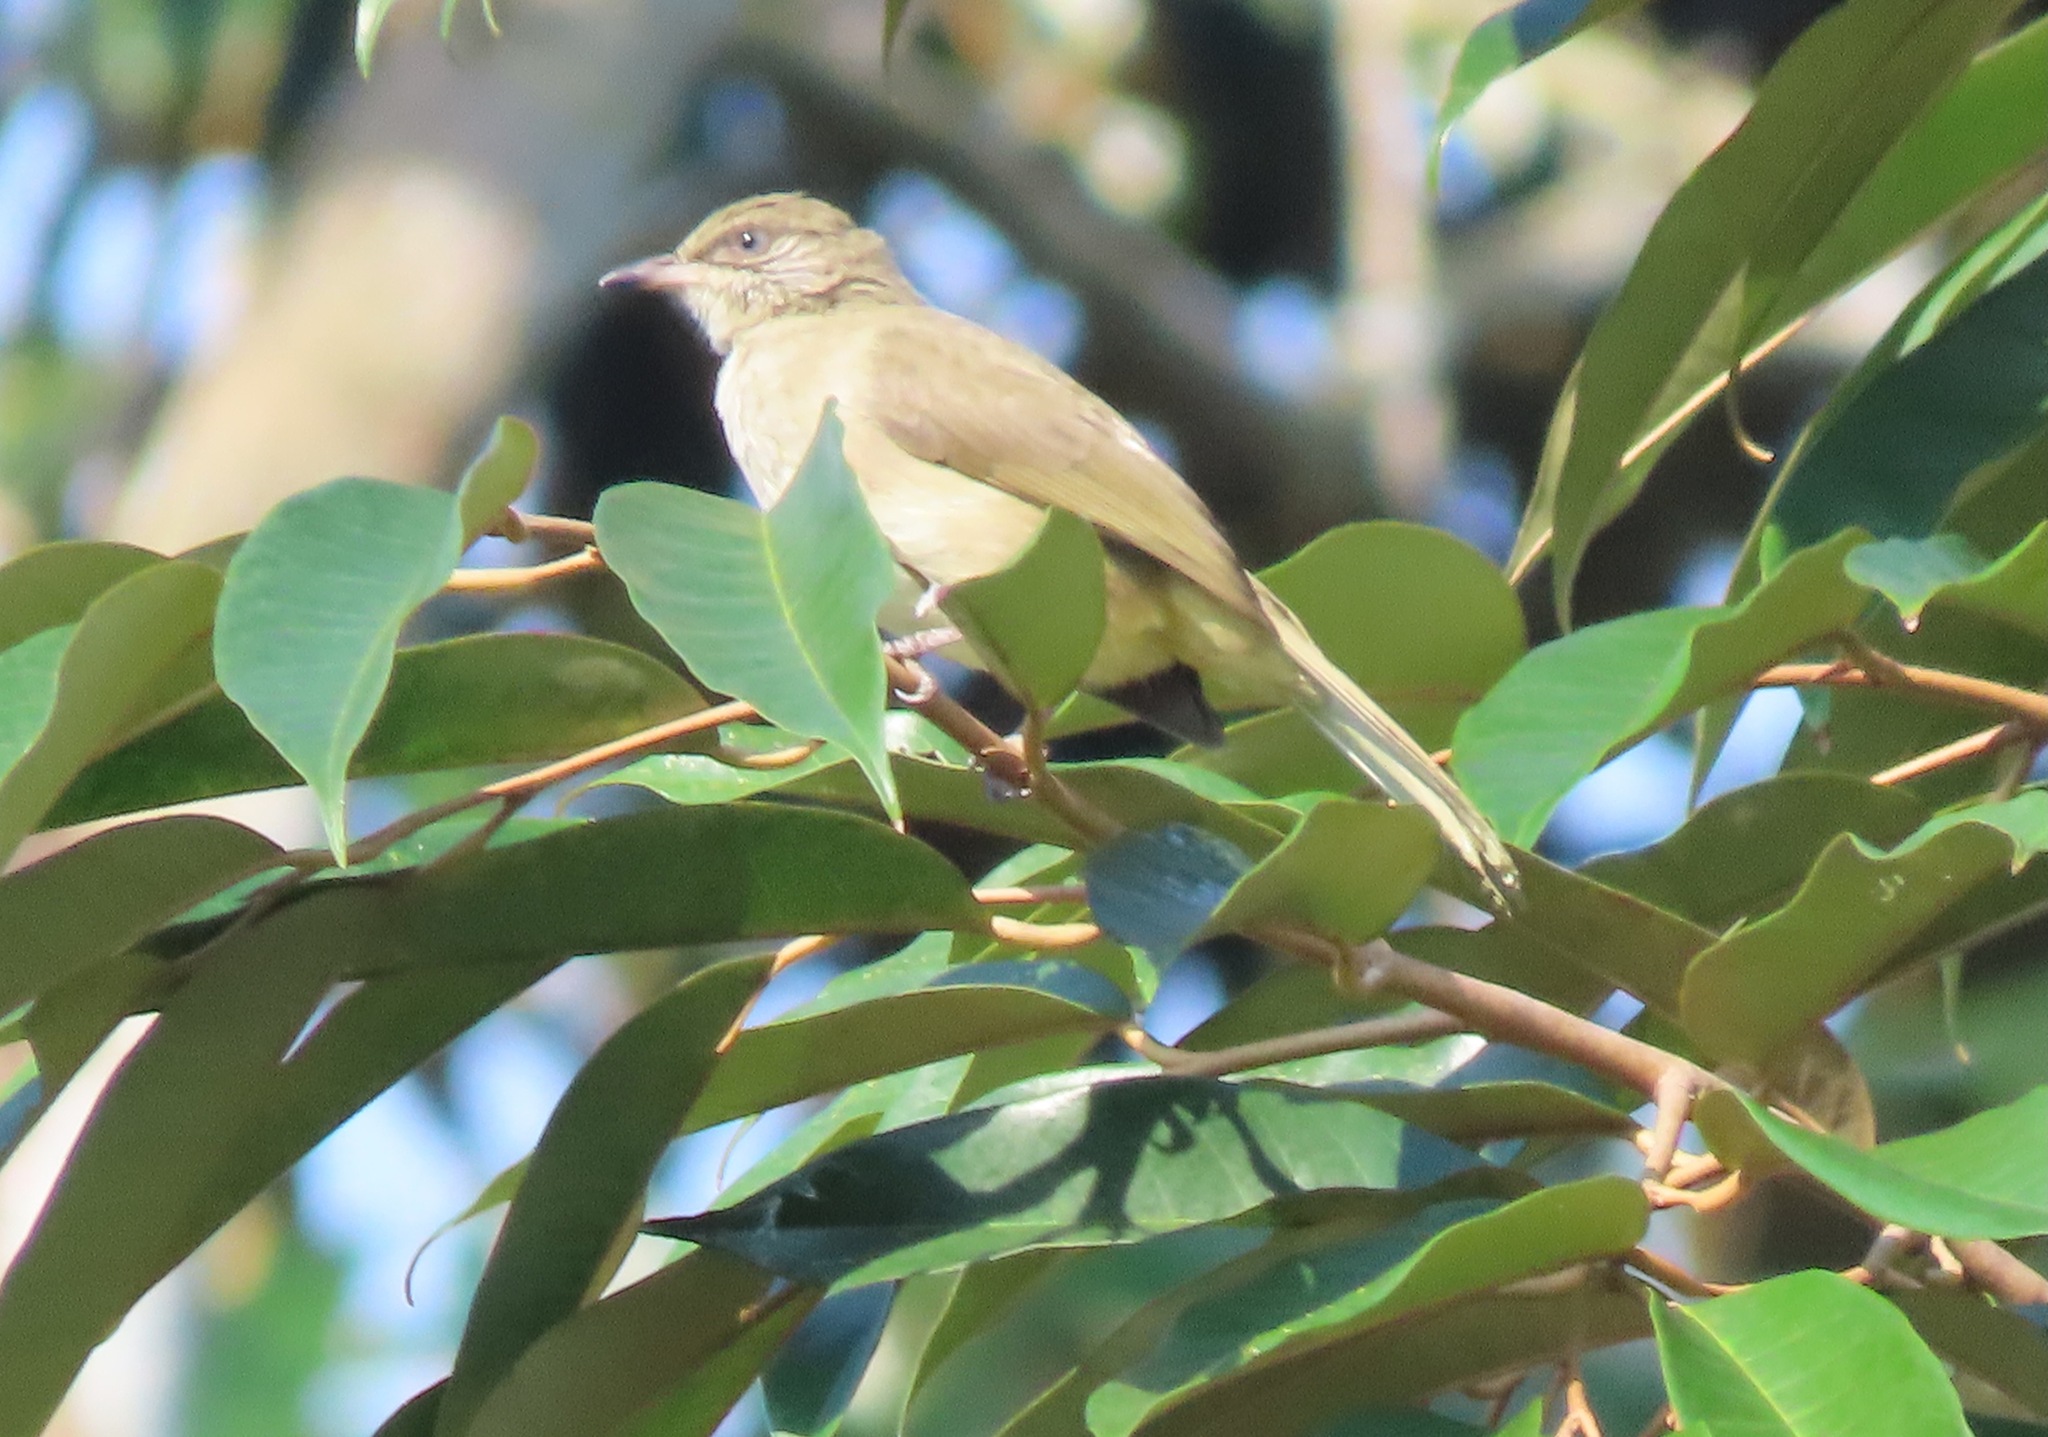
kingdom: Animalia
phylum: Chordata
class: Aves
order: Passeriformes
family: Pycnonotidae
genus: Pycnonotus
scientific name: Pycnonotus blanfordi
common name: Streak-eared bulbul
